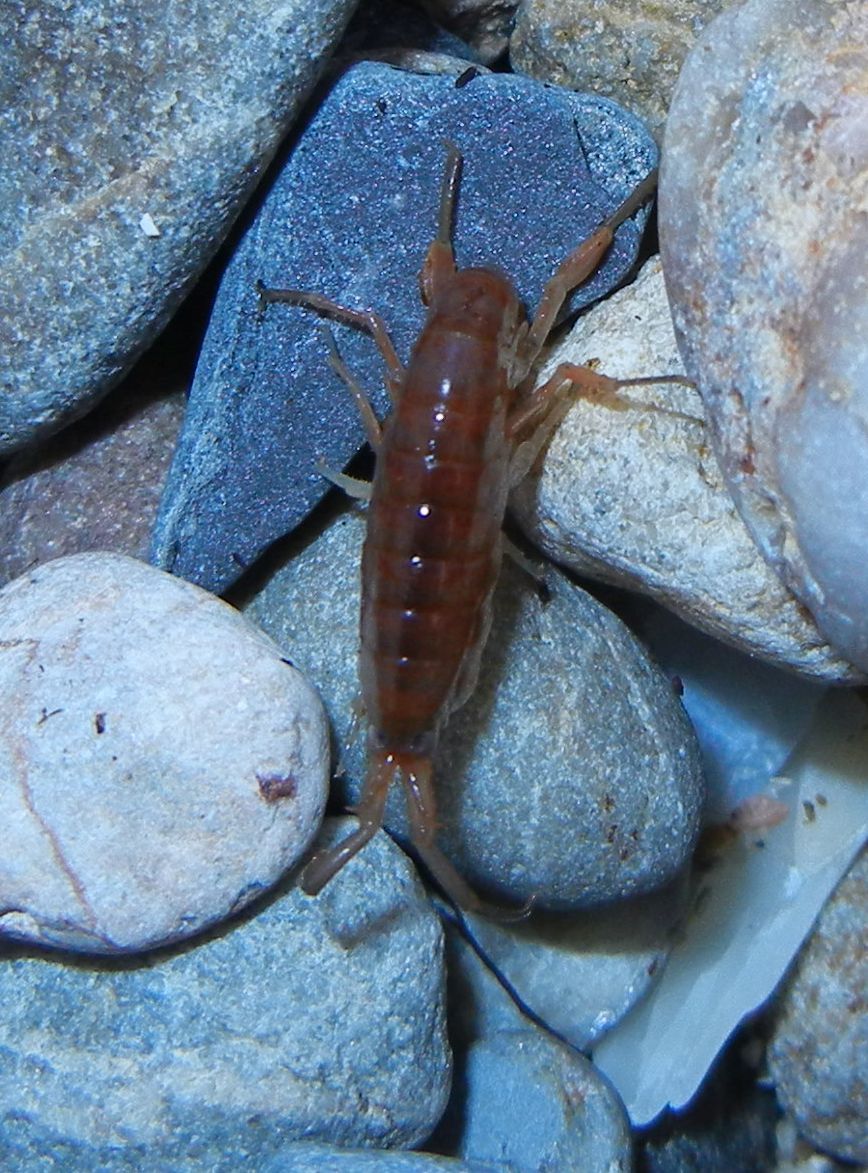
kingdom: Animalia
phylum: Arthropoda
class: Malacostraca
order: Amphipoda
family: Talitridae
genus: Orchestia
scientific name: Orchestia gammarellus
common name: Beach-flea
